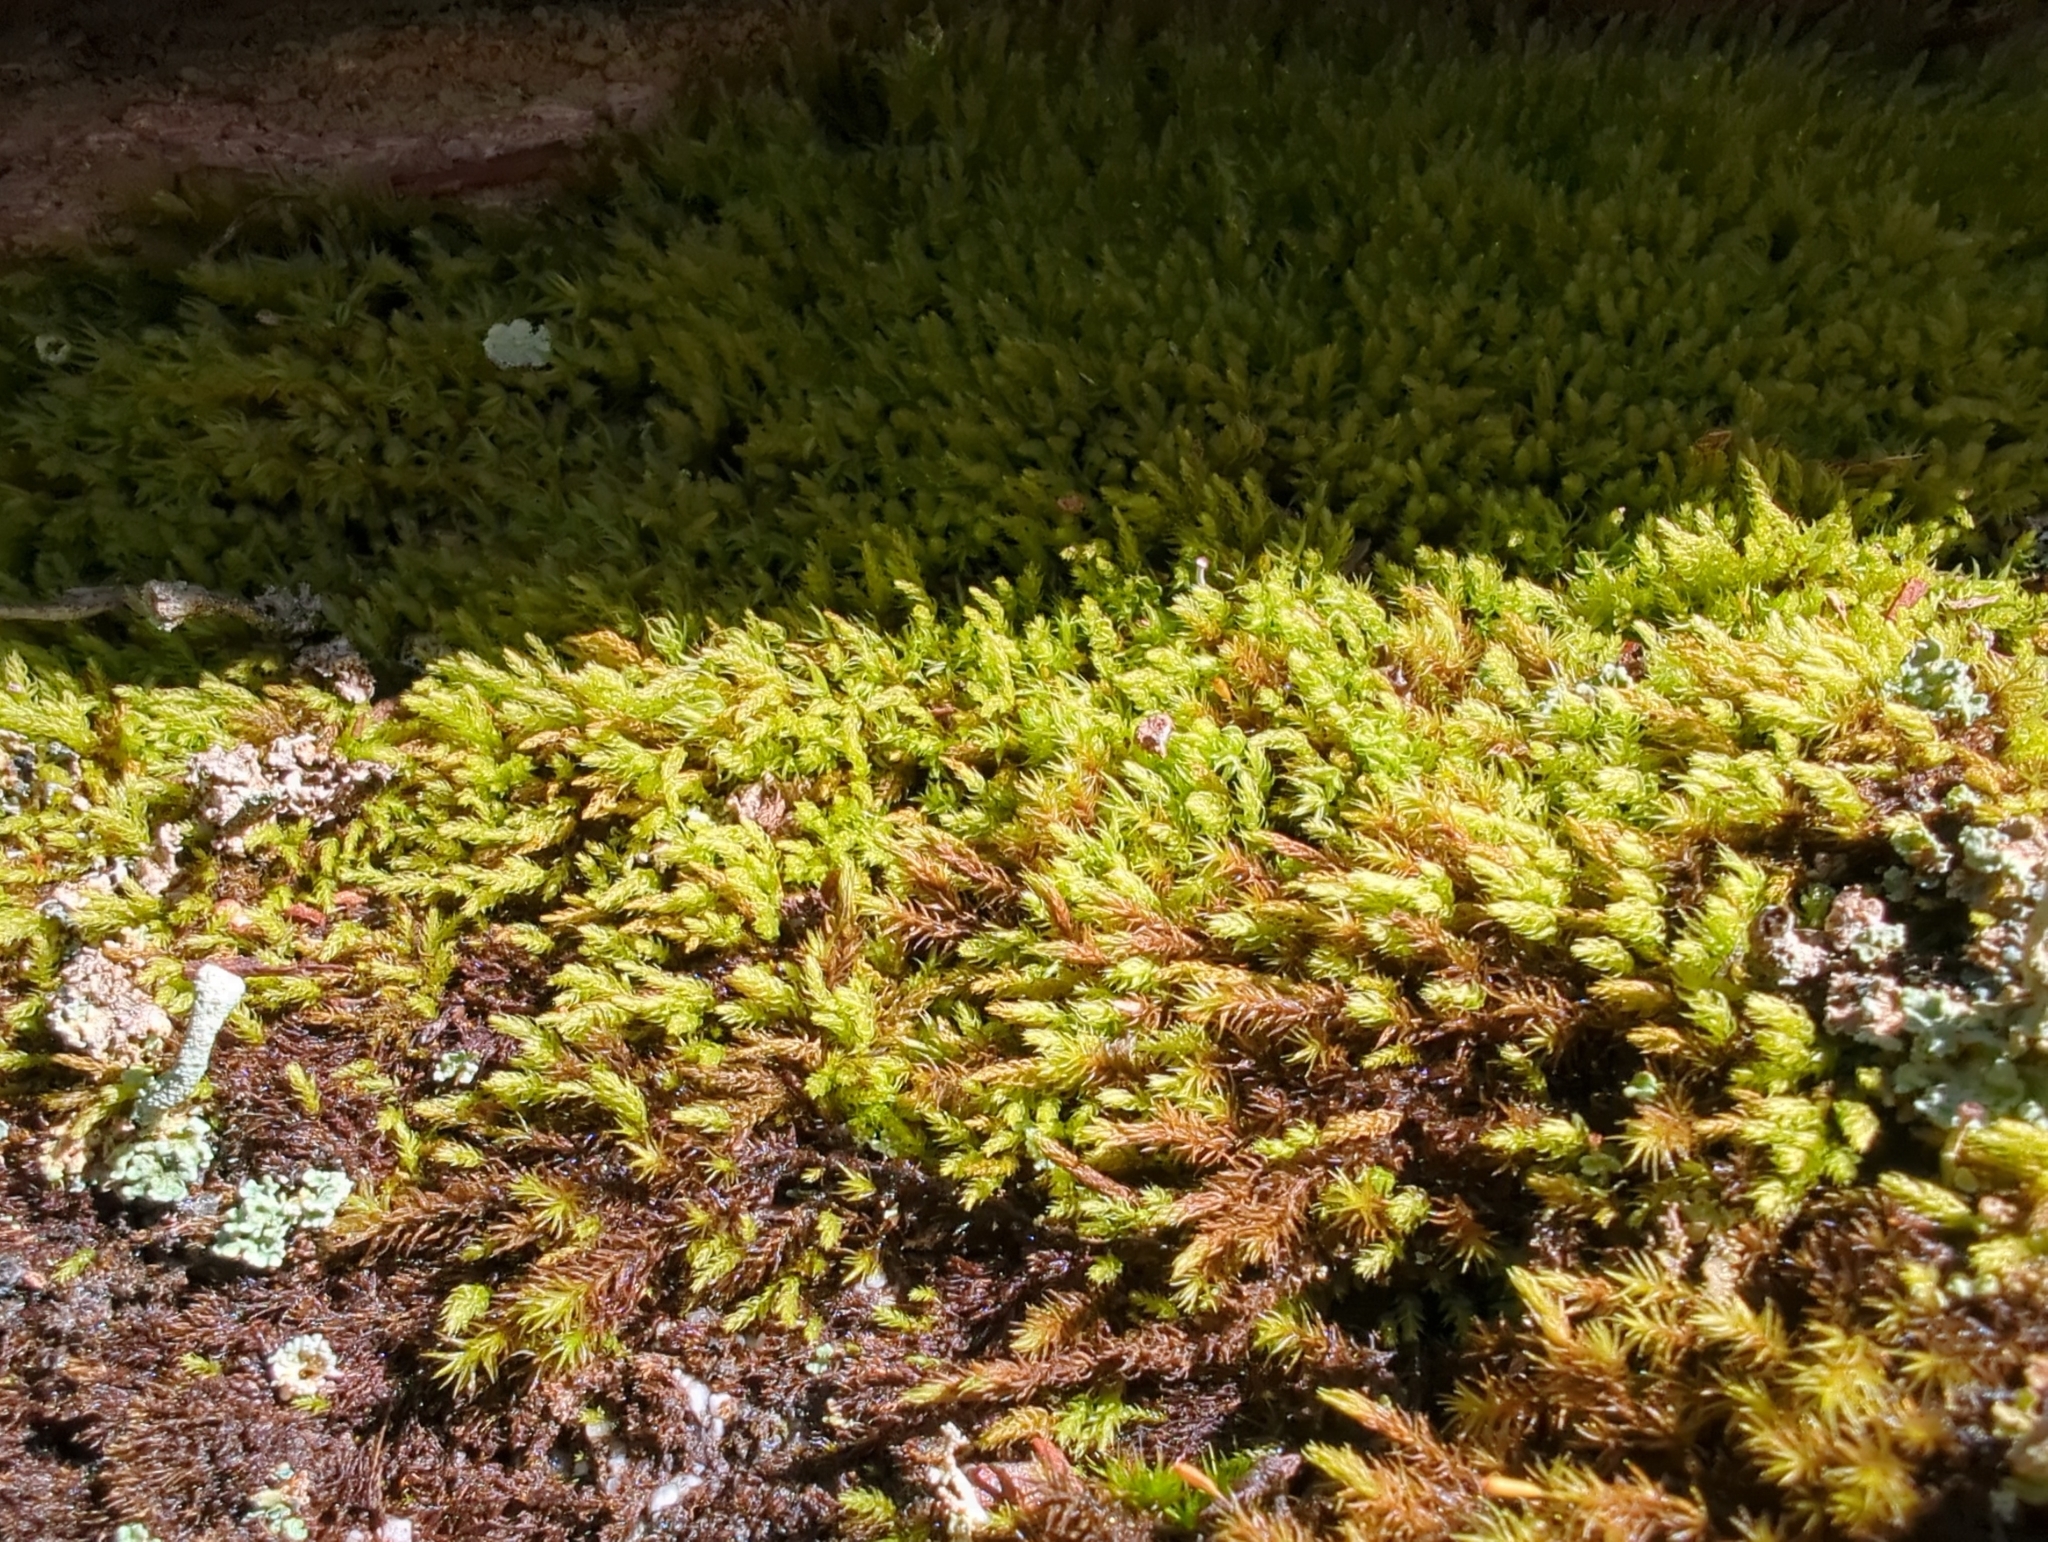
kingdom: Plantae
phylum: Bryophyta
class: Bryopsida
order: Orthodontiales
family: Orthodontiaceae
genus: Leptotheca
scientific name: Leptotheca gaudichaudii
